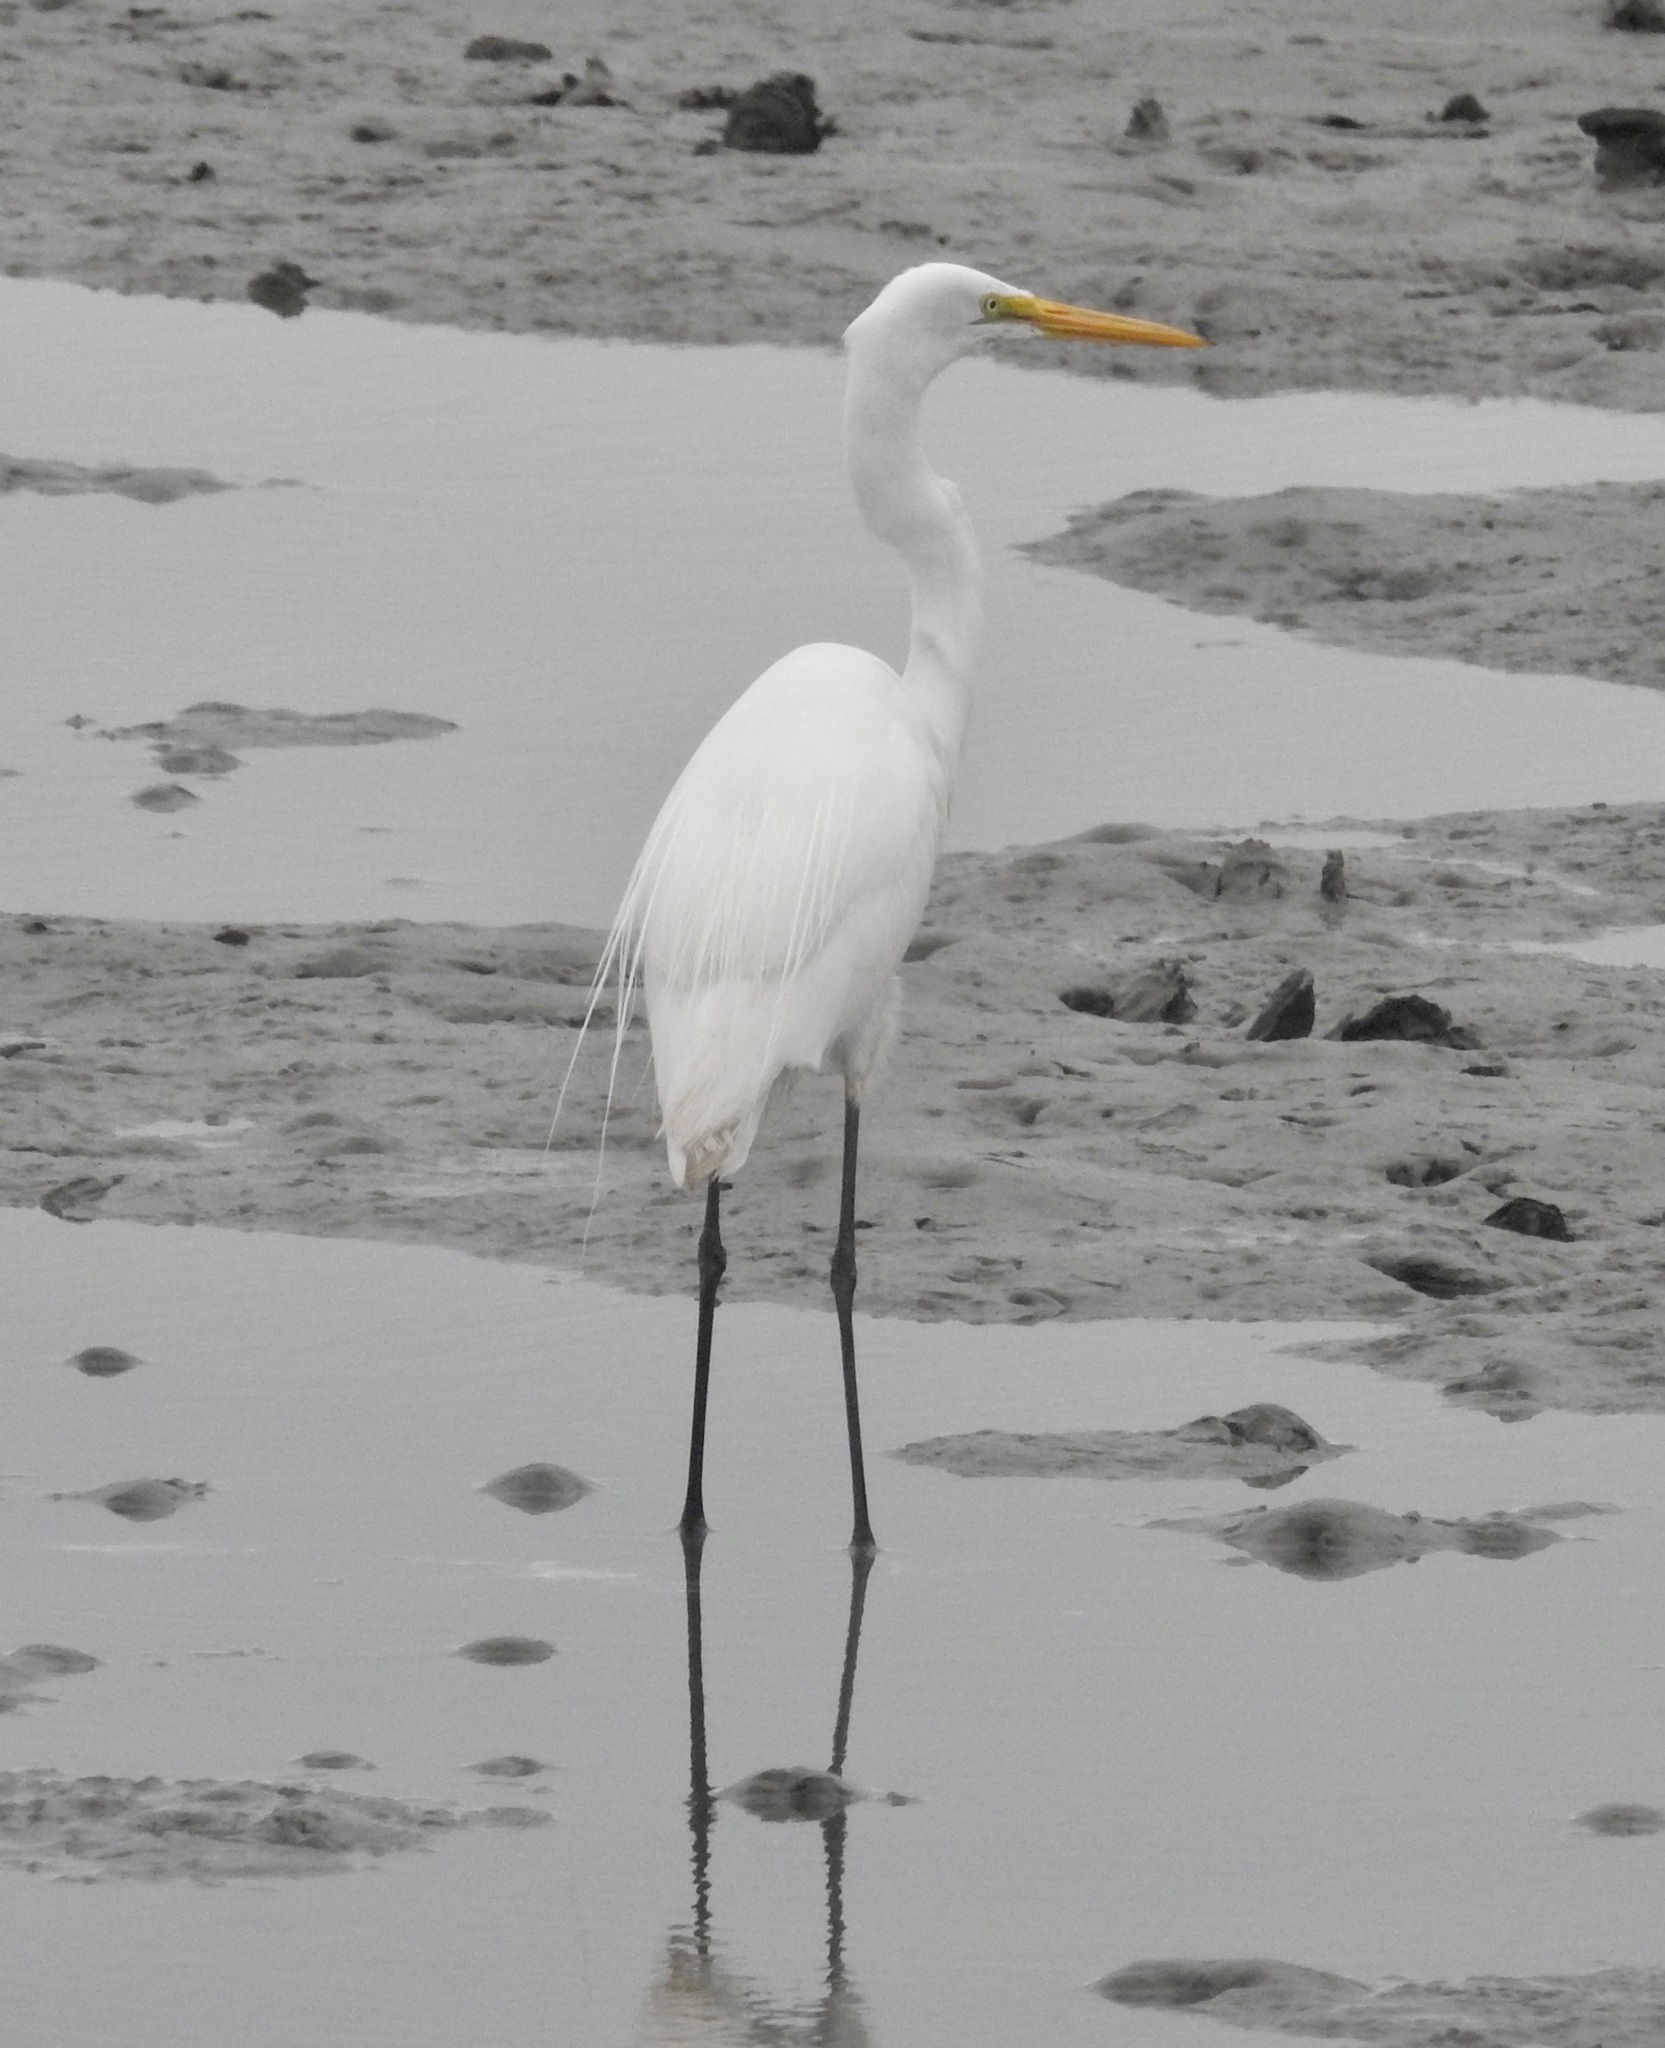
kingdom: Animalia
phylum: Chordata
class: Aves
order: Pelecaniformes
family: Ardeidae
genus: Ardea
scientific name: Ardea alba
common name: Great egret
